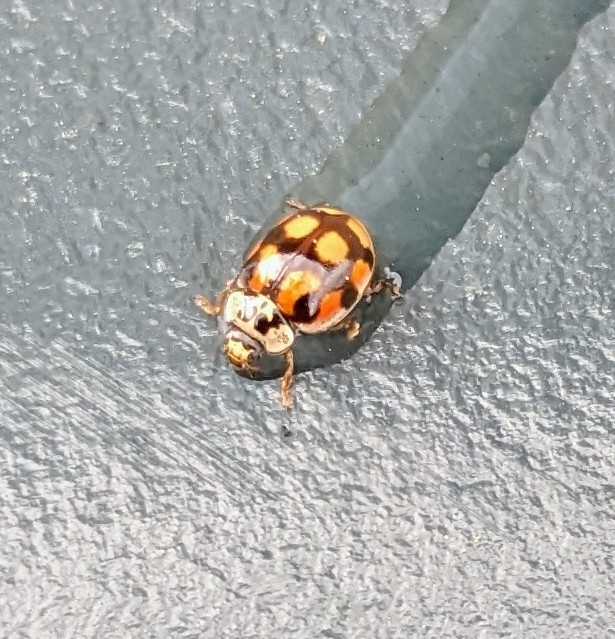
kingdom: Animalia
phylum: Arthropoda
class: Insecta
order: Coleoptera
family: Coccinellidae
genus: Adalia
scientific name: Adalia decempunctata
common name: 10-spot ladybird
